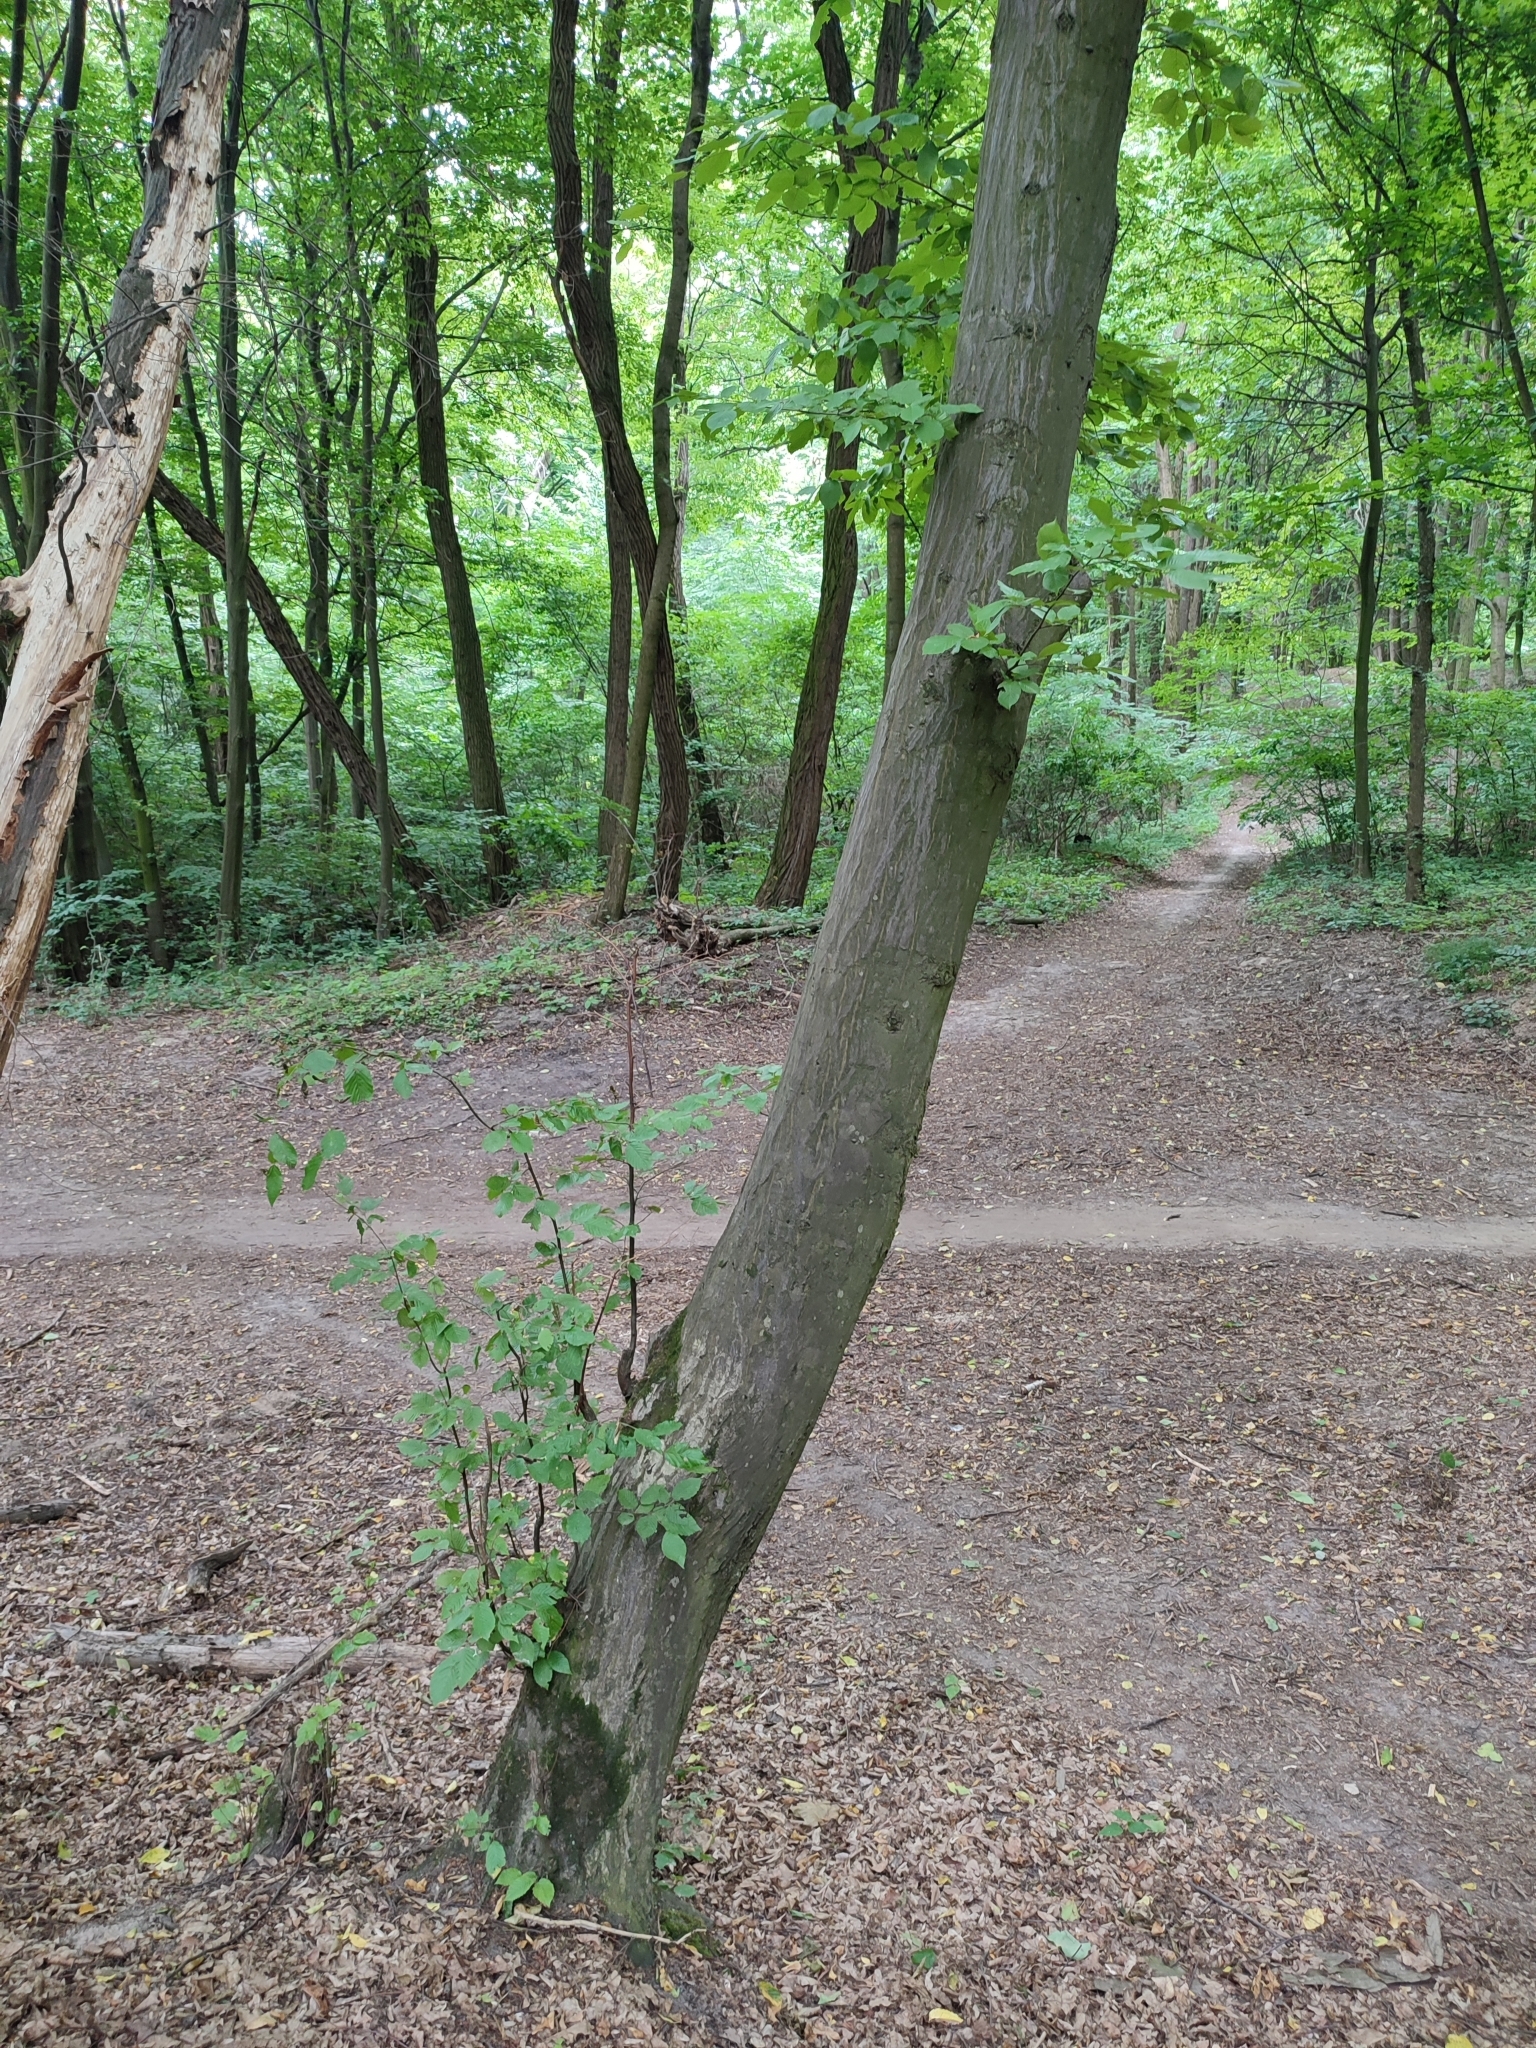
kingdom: Plantae
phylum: Tracheophyta
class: Magnoliopsida
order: Fagales
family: Betulaceae
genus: Carpinus
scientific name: Carpinus betulus
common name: Hornbeam
